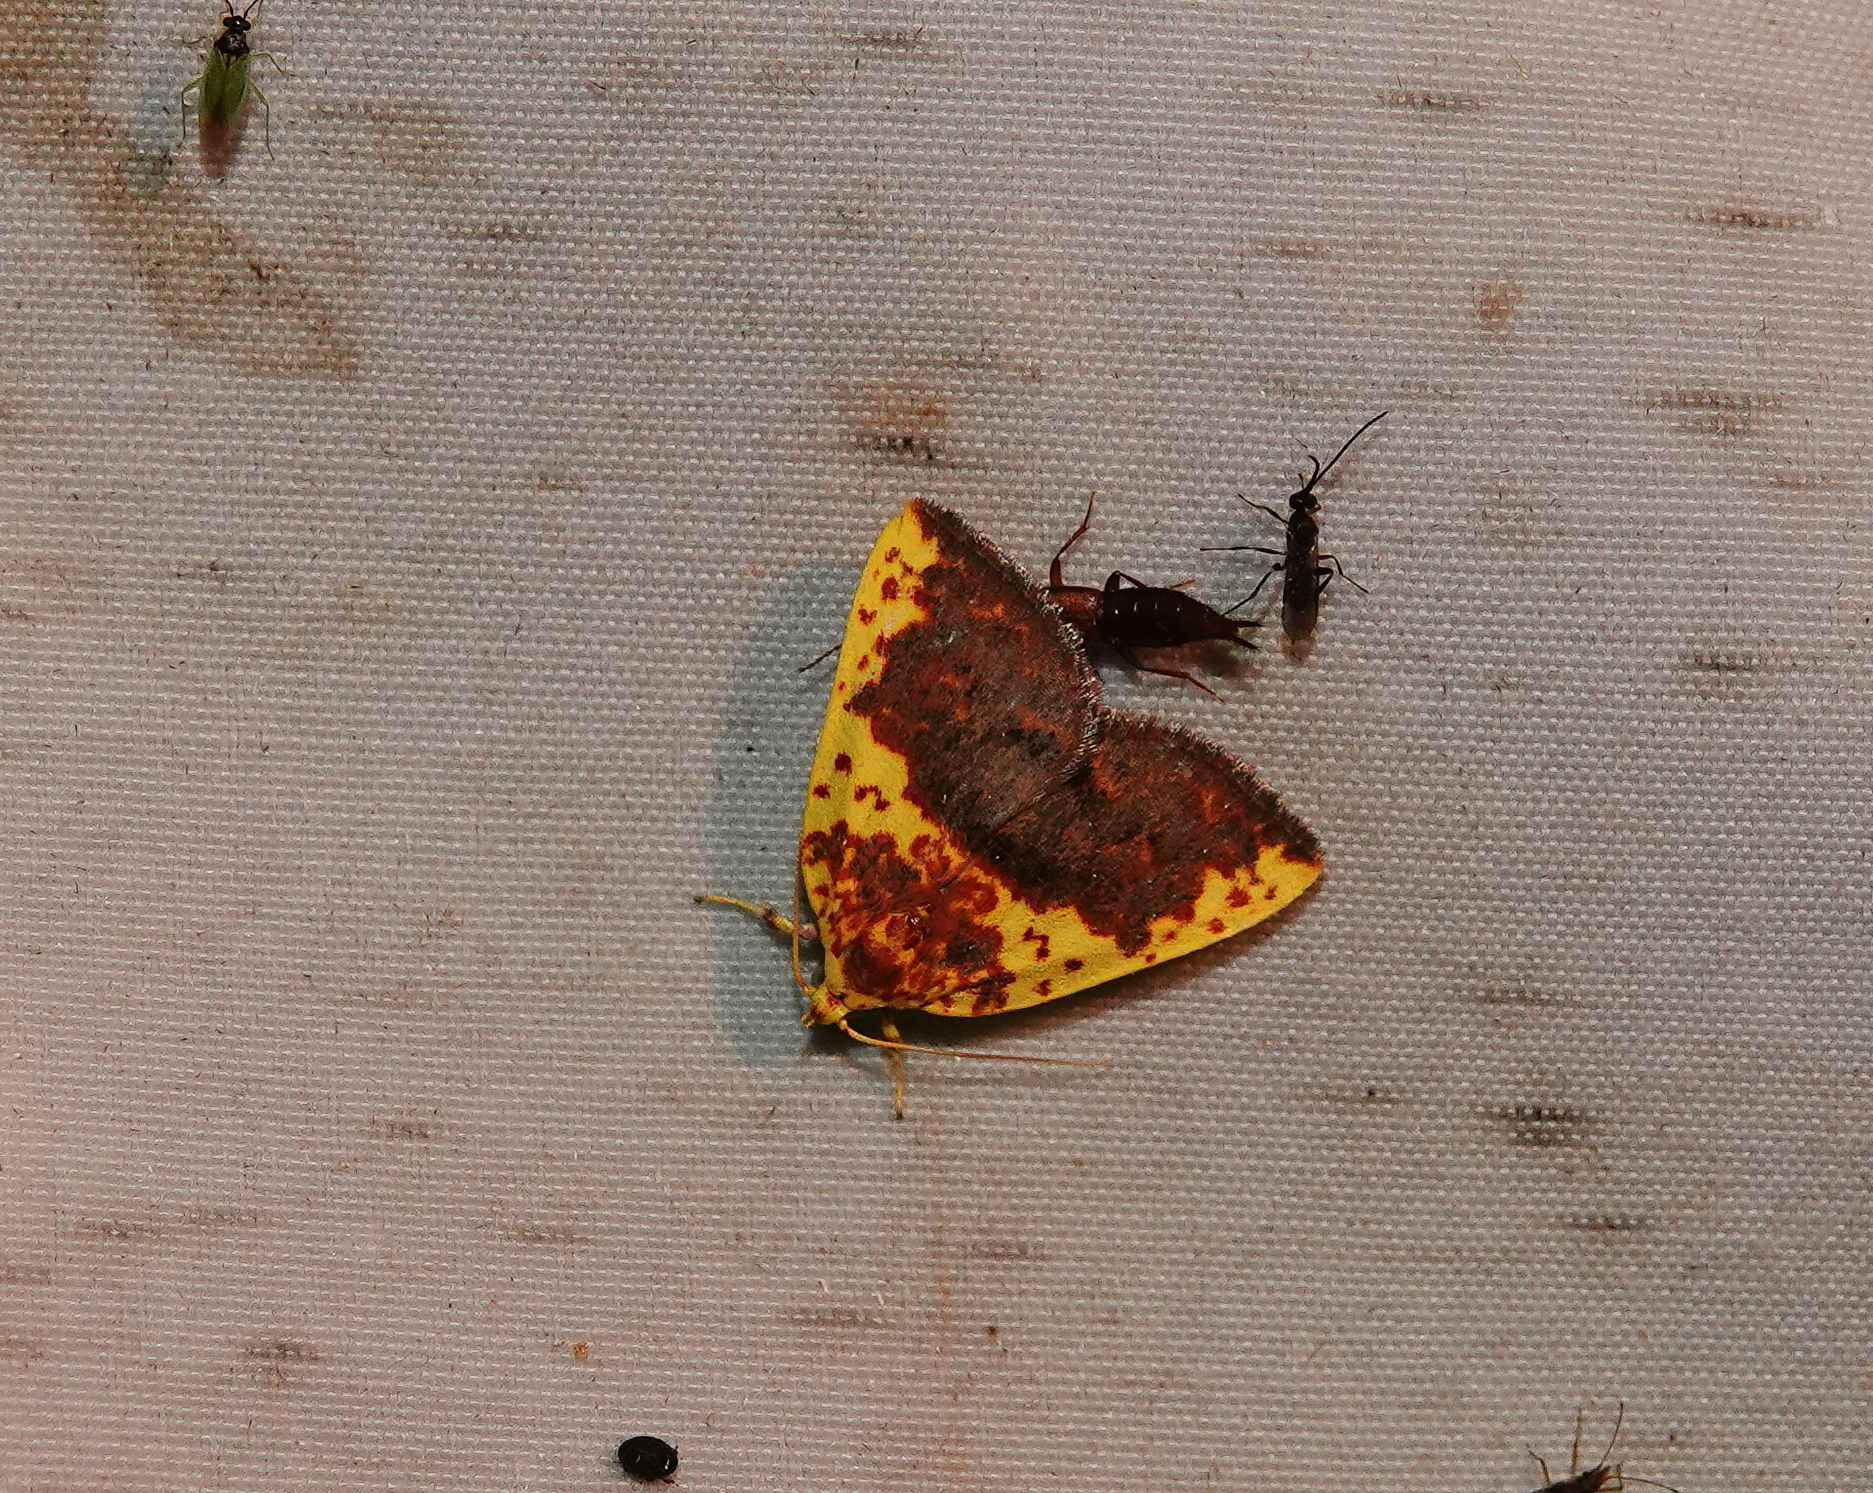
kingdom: Animalia
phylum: Arthropoda
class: Insecta
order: Lepidoptera
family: Nolidae
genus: Siglophora
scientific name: Siglophora sanguinolenta
